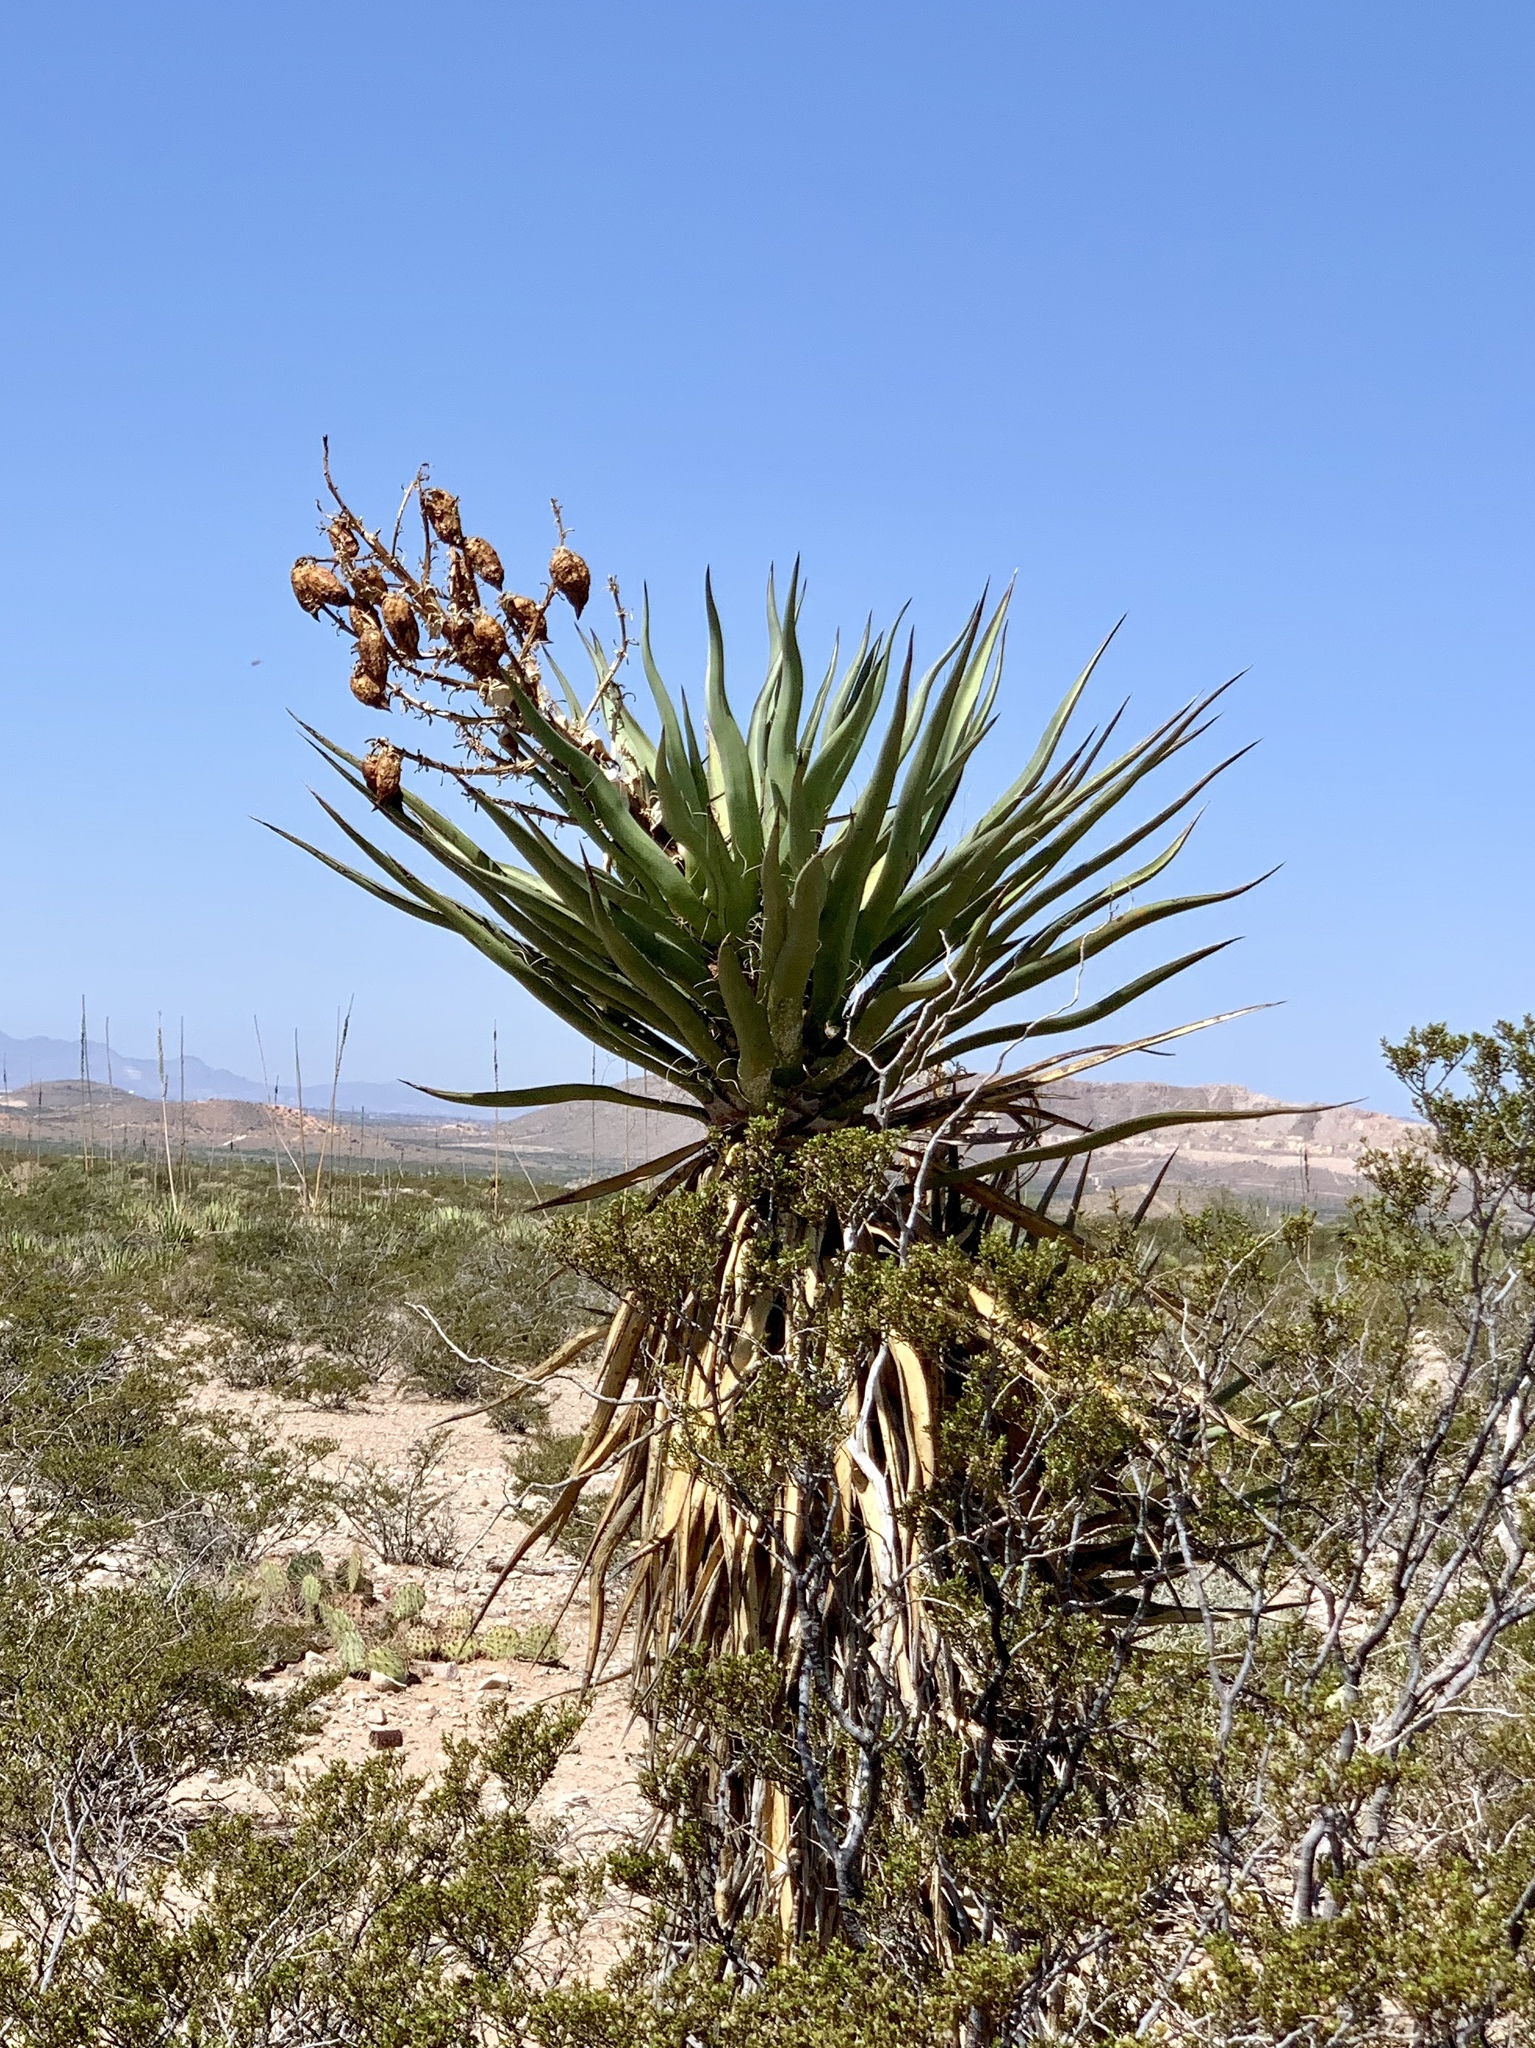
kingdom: Plantae
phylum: Tracheophyta
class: Liliopsida
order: Asparagales
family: Asparagaceae
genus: Yucca
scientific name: Yucca treculiana
